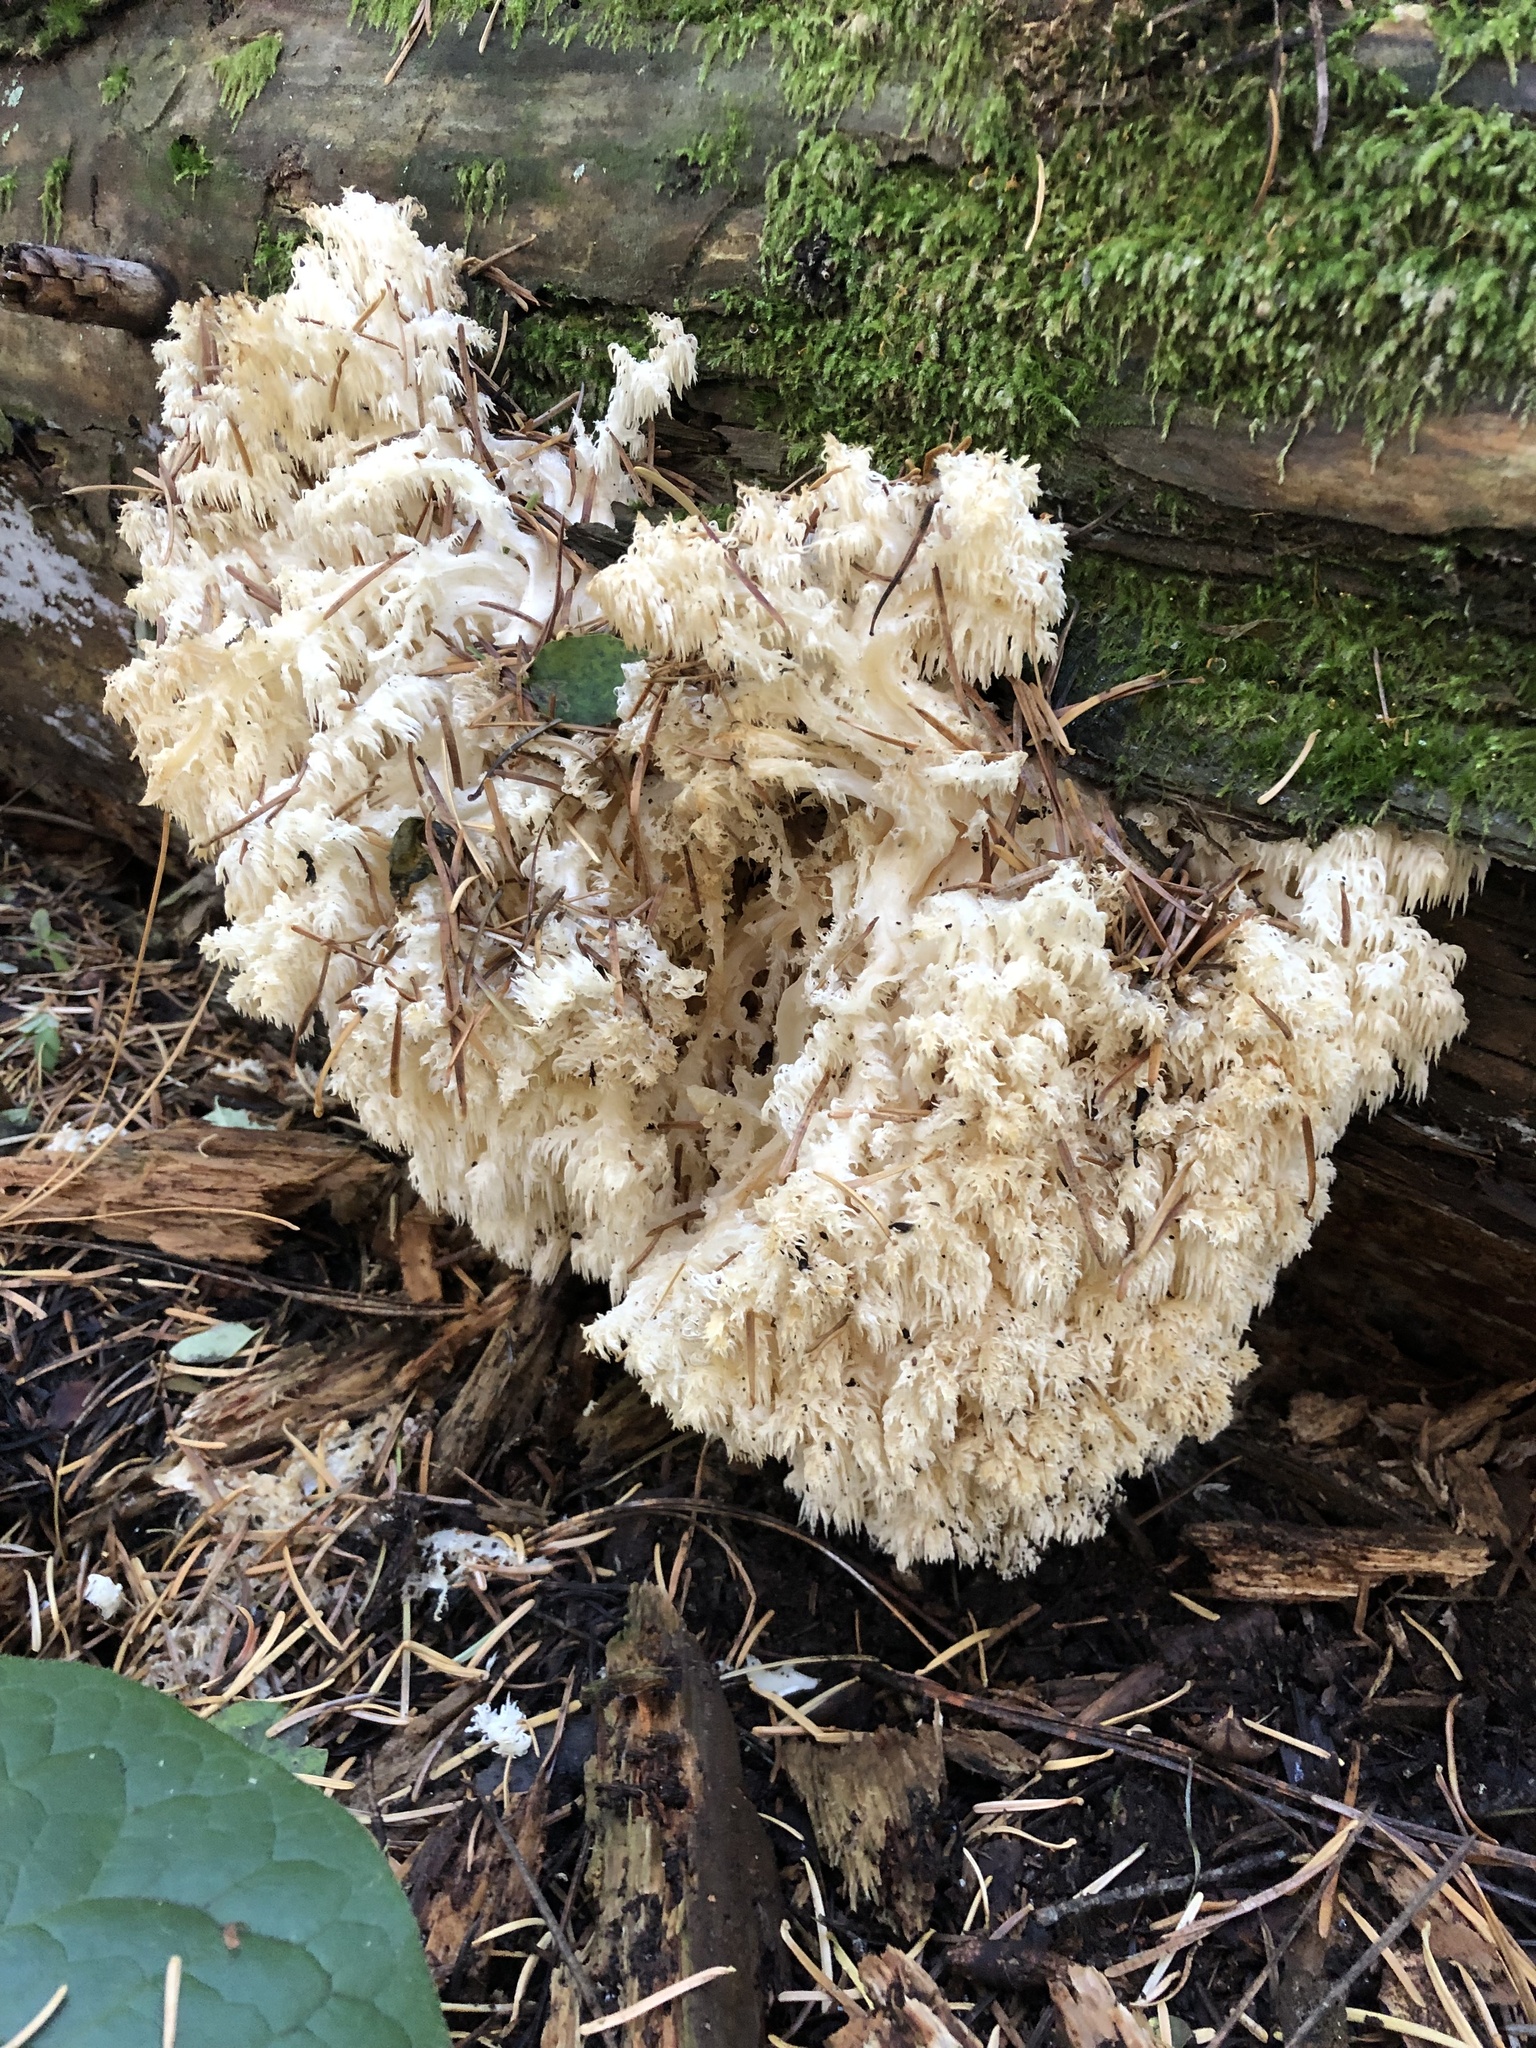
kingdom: Fungi
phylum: Basidiomycota
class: Agaricomycetes
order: Russulales
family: Hericiaceae
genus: Hericium
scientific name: Hericium abietis
